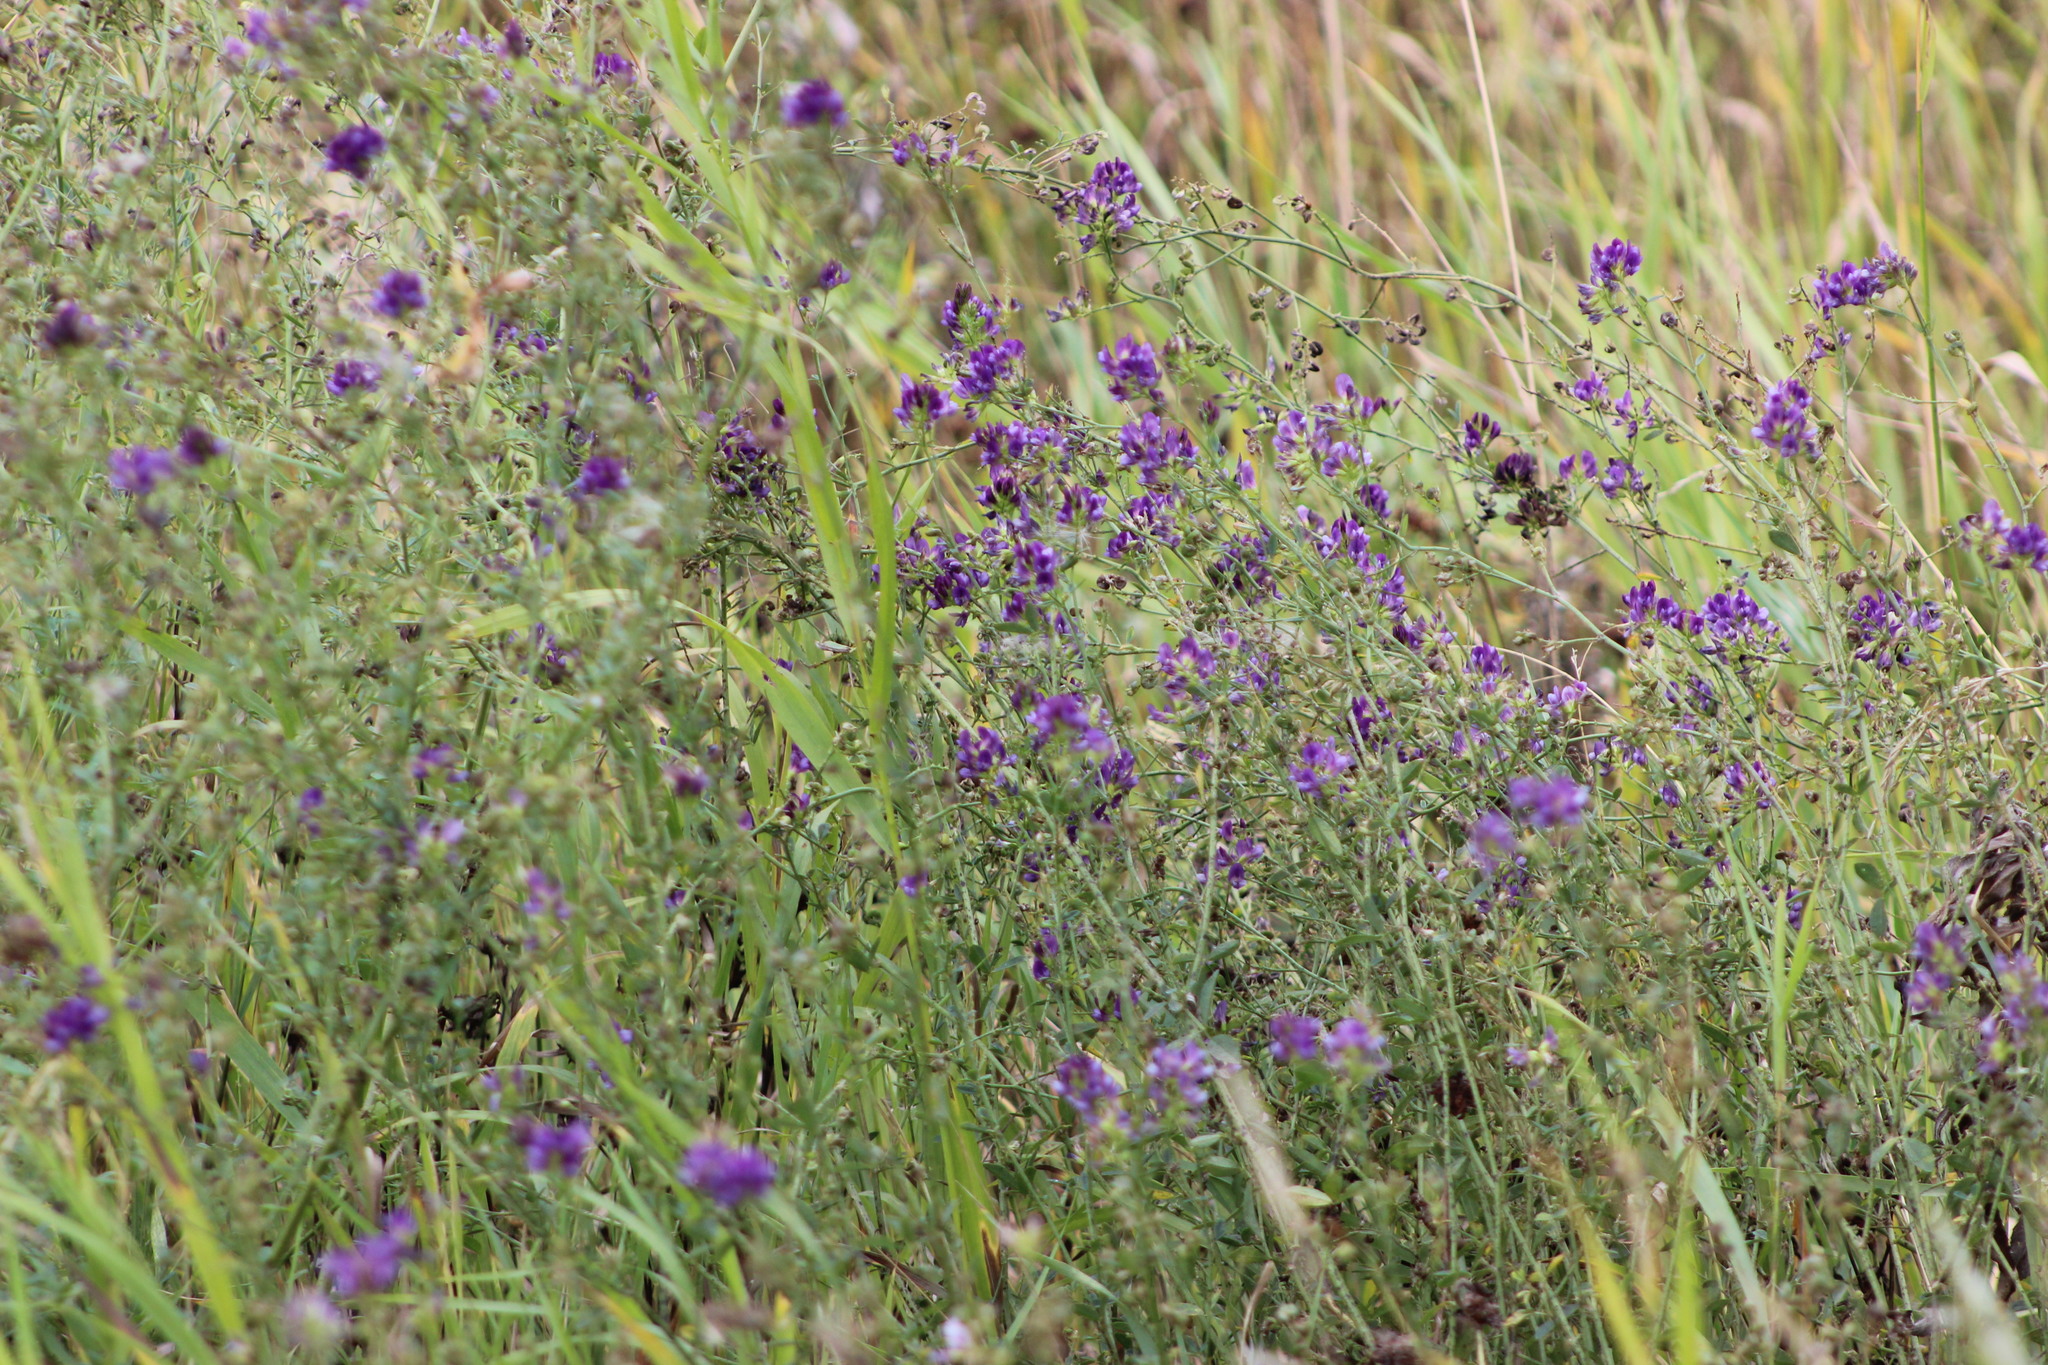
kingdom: Plantae
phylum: Tracheophyta
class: Magnoliopsida
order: Fabales
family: Fabaceae
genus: Medicago
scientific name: Medicago varia
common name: Sand lucerne
